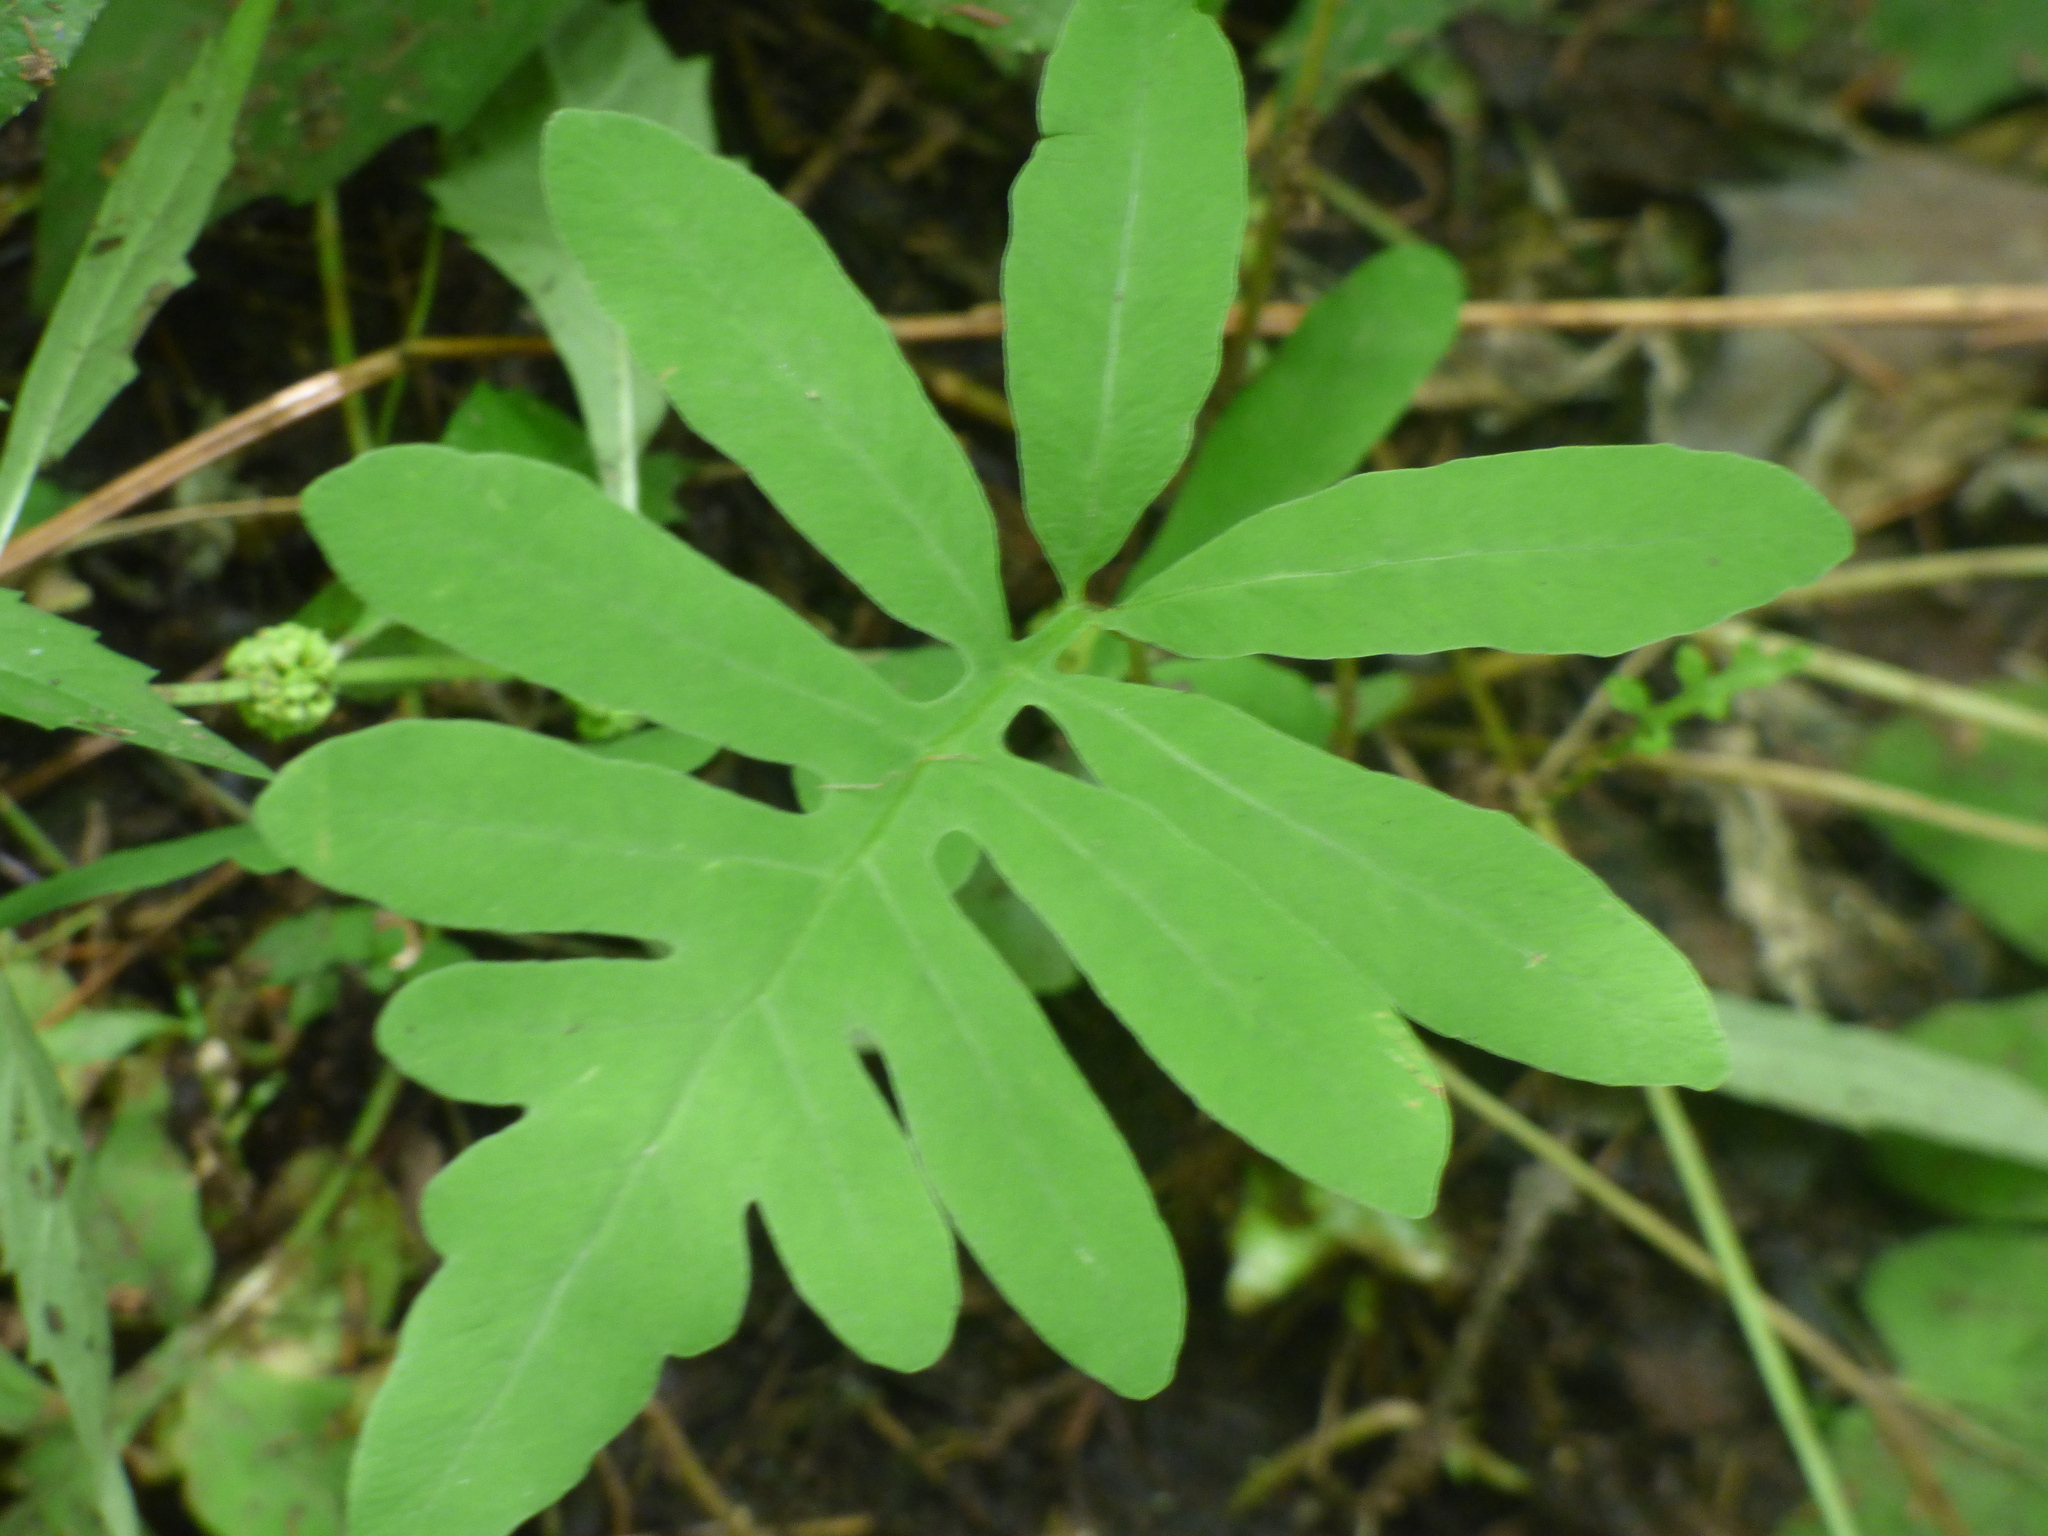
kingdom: Plantae
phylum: Tracheophyta
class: Polypodiopsida
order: Polypodiales
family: Onocleaceae
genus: Onoclea
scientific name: Onoclea sensibilis
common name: Sensitive fern
